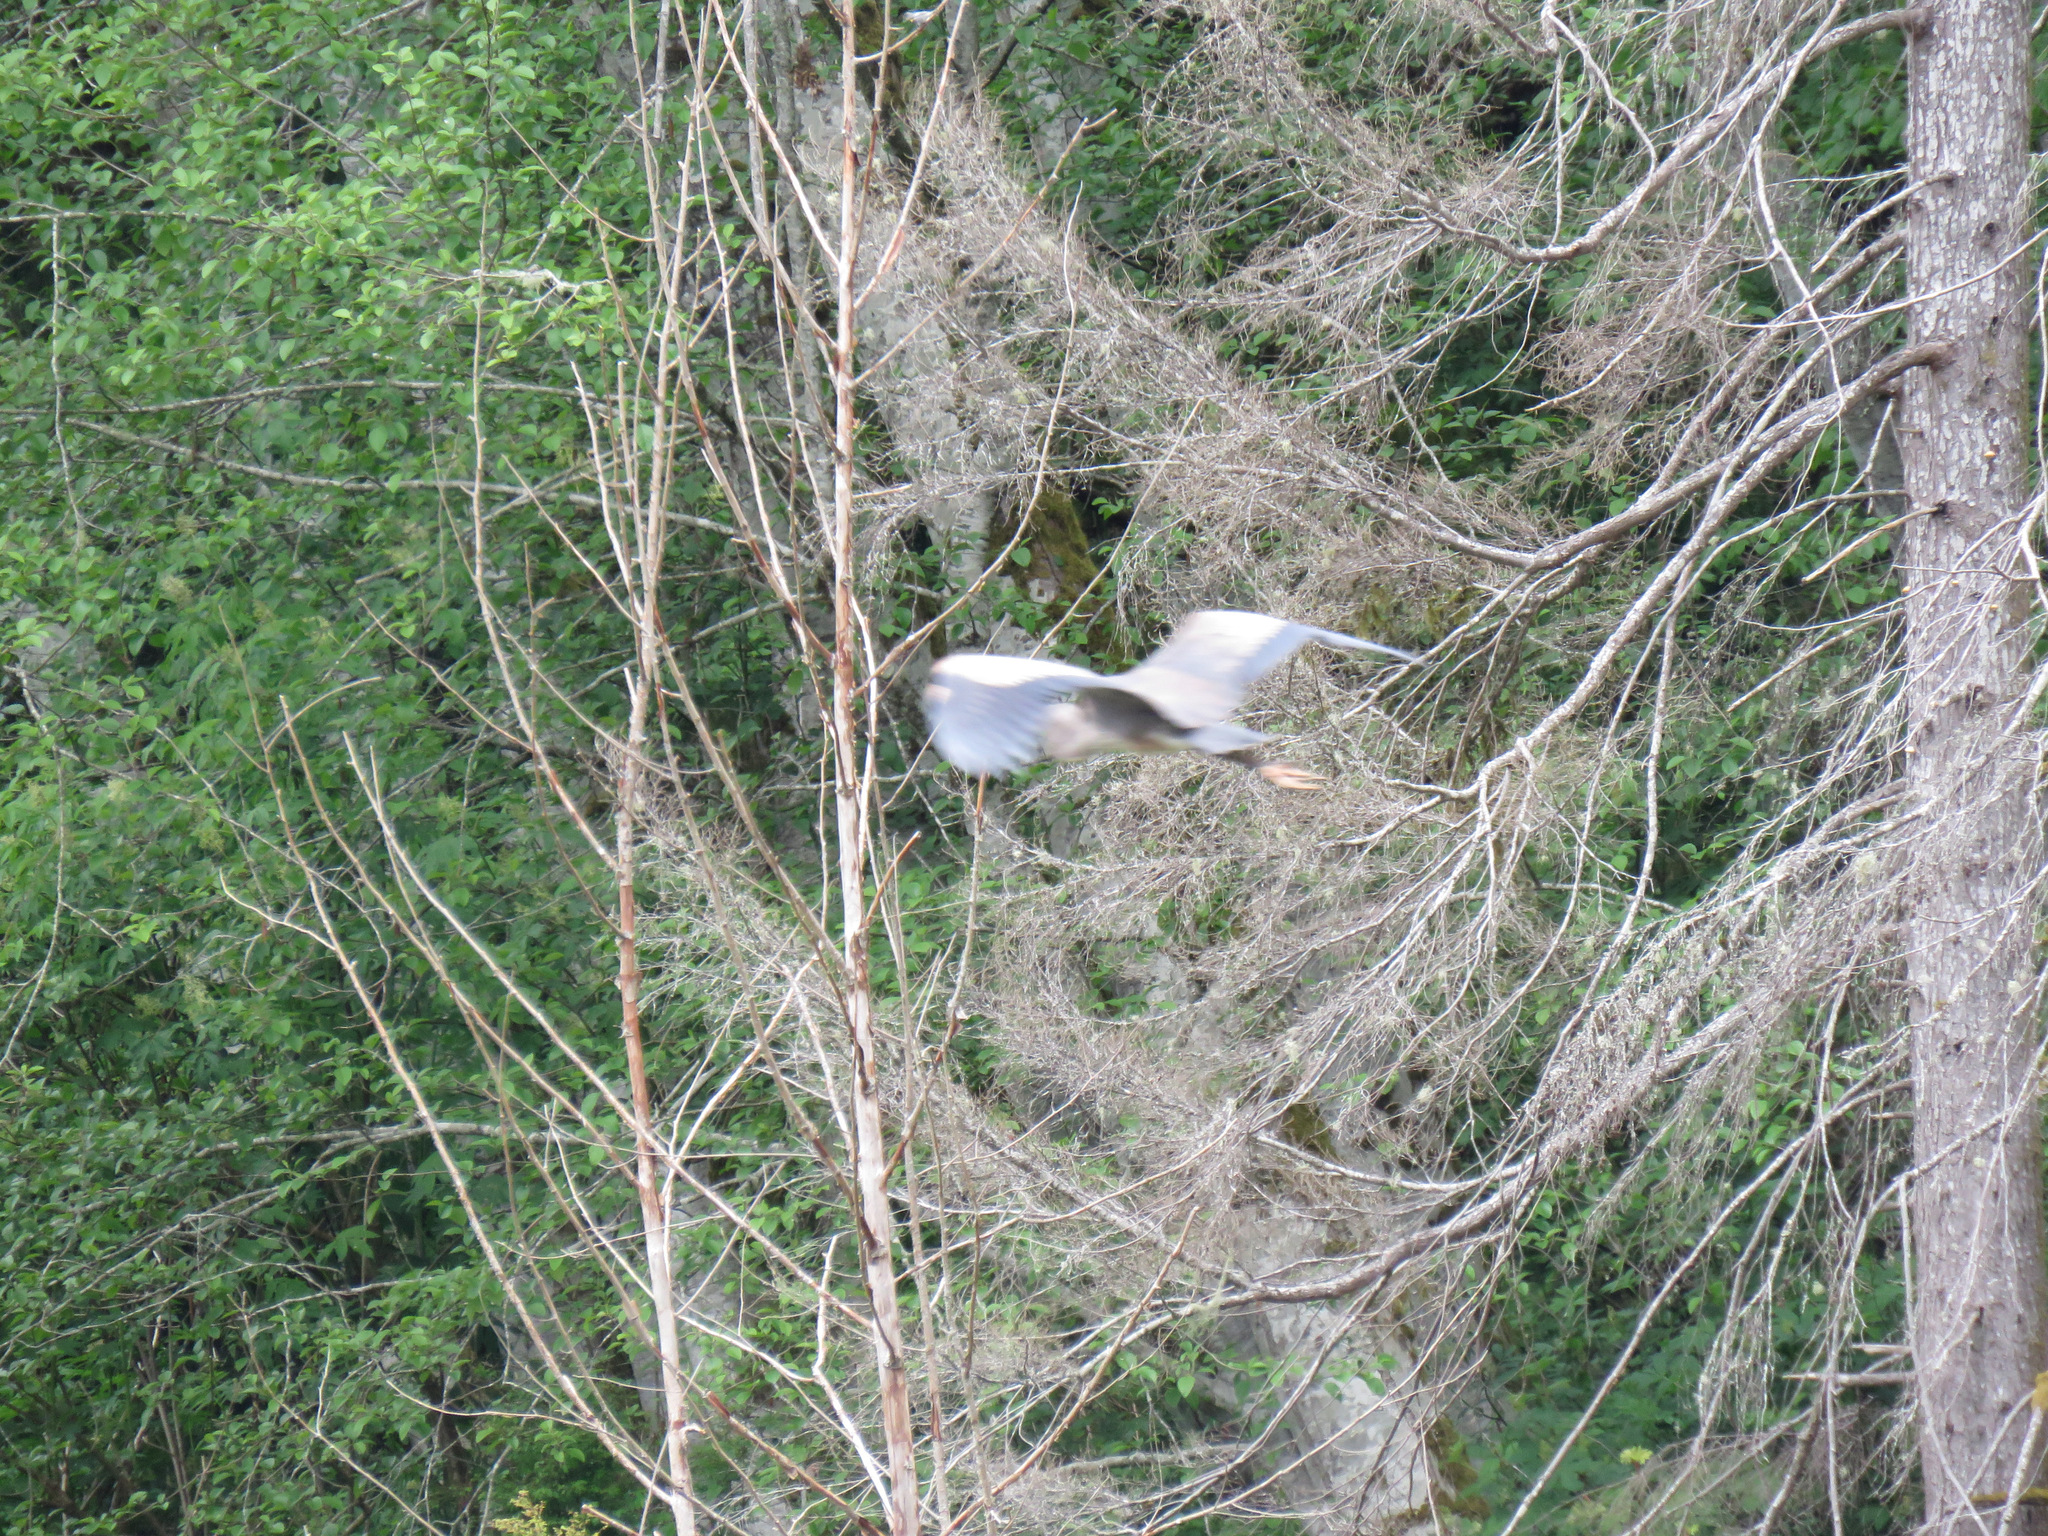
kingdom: Animalia
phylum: Chordata
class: Aves
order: Pelecaniformes
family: Ardeidae
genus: Ardea
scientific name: Ardea herodias
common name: Great blue heron
